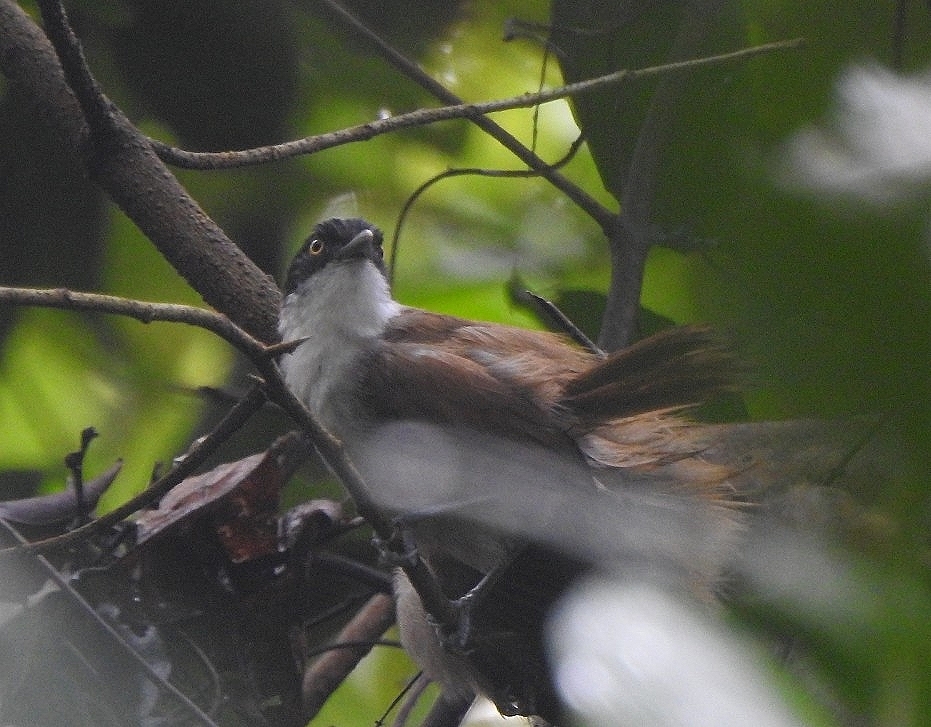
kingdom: Animalia
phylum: Chordata
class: Aves
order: Passeriformes
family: Timaliidae
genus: Rhopocichla
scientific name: Rhopocichla atriceps
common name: Dark-fronted babbler
